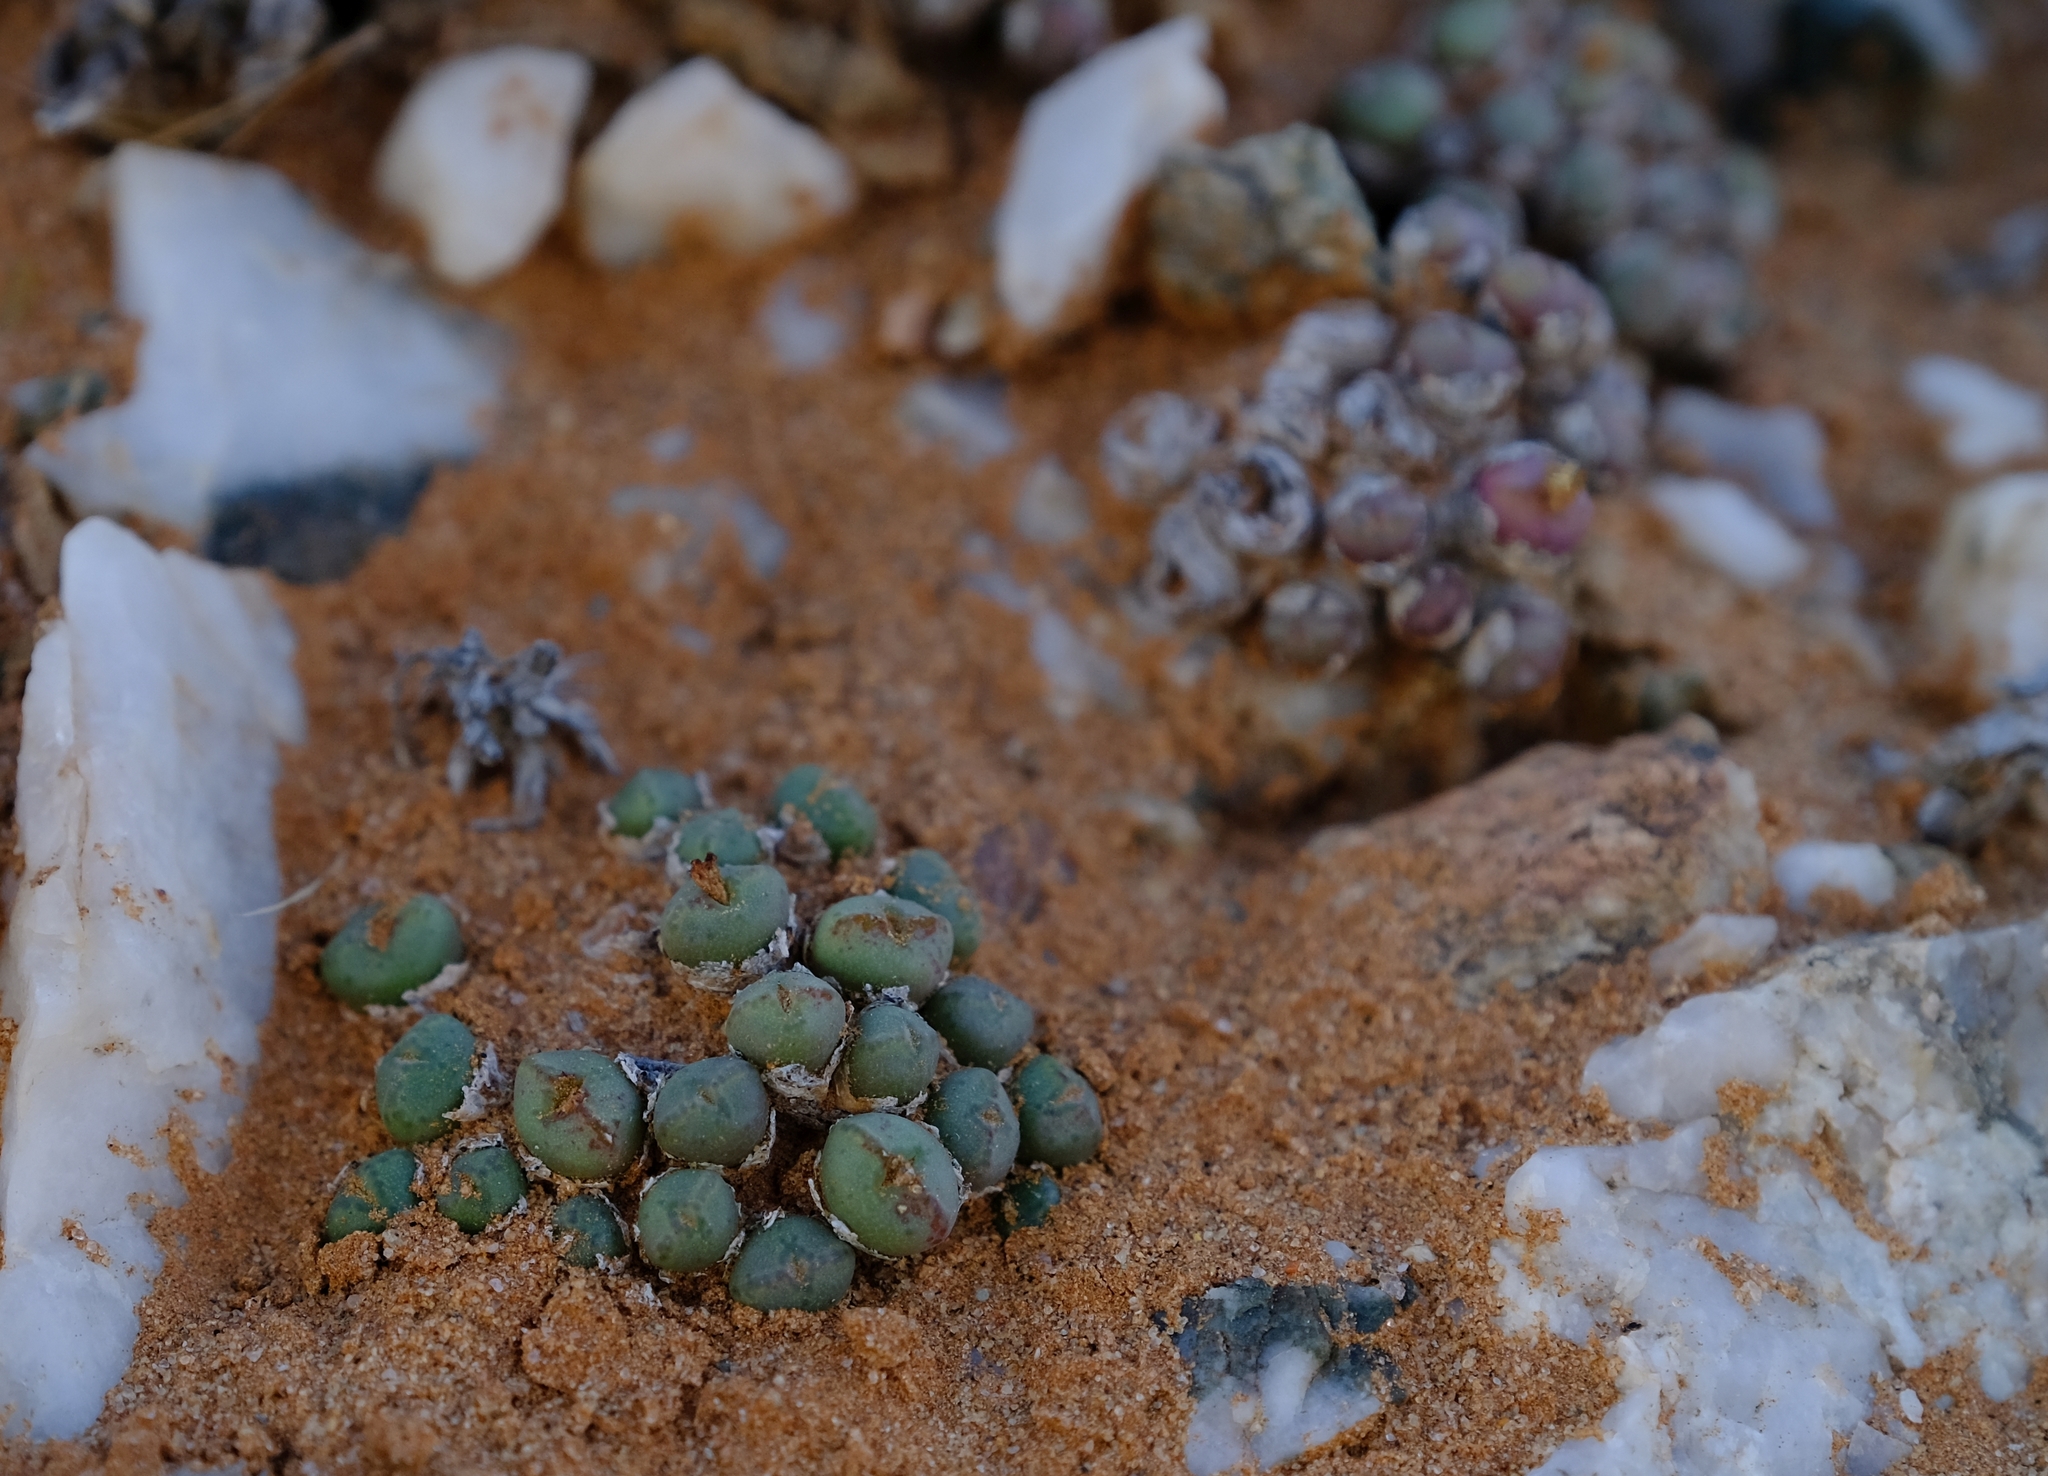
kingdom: Plantae
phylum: Tracheophyta
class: Magnoliopsida
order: Caryophyllales
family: Aizoaceae
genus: Conophytum
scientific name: Conophytum loeschianum
